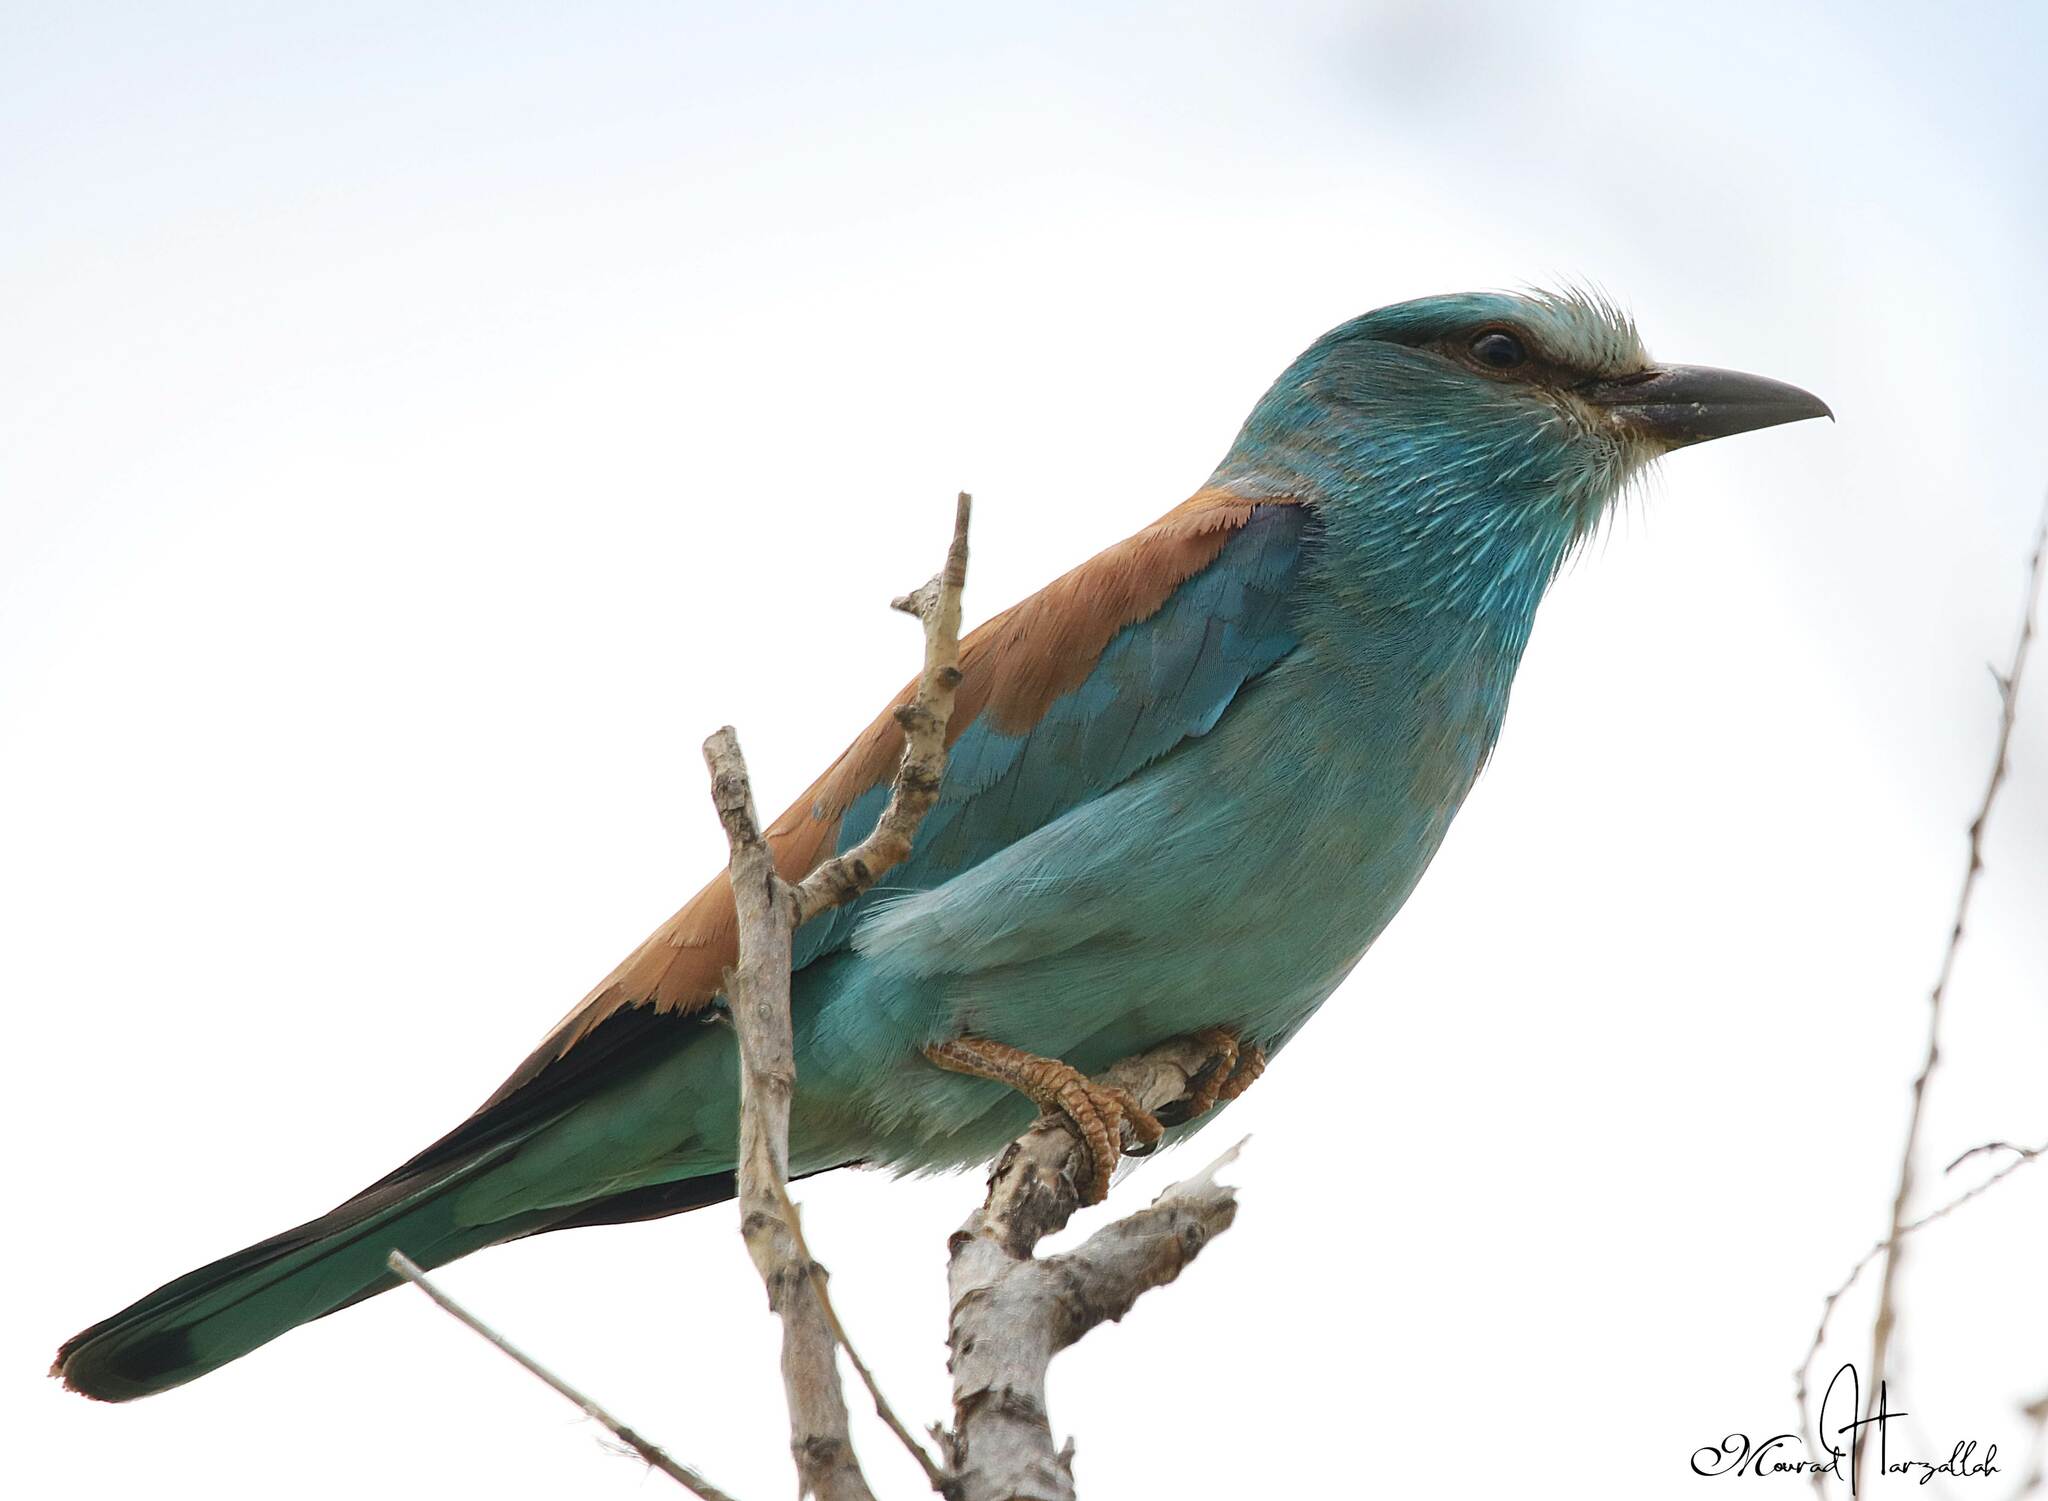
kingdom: Animalia
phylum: Chordata
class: Aves
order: Coraciiformes
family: Coraciidae
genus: Coracias
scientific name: Coracias garrulus
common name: European roller
